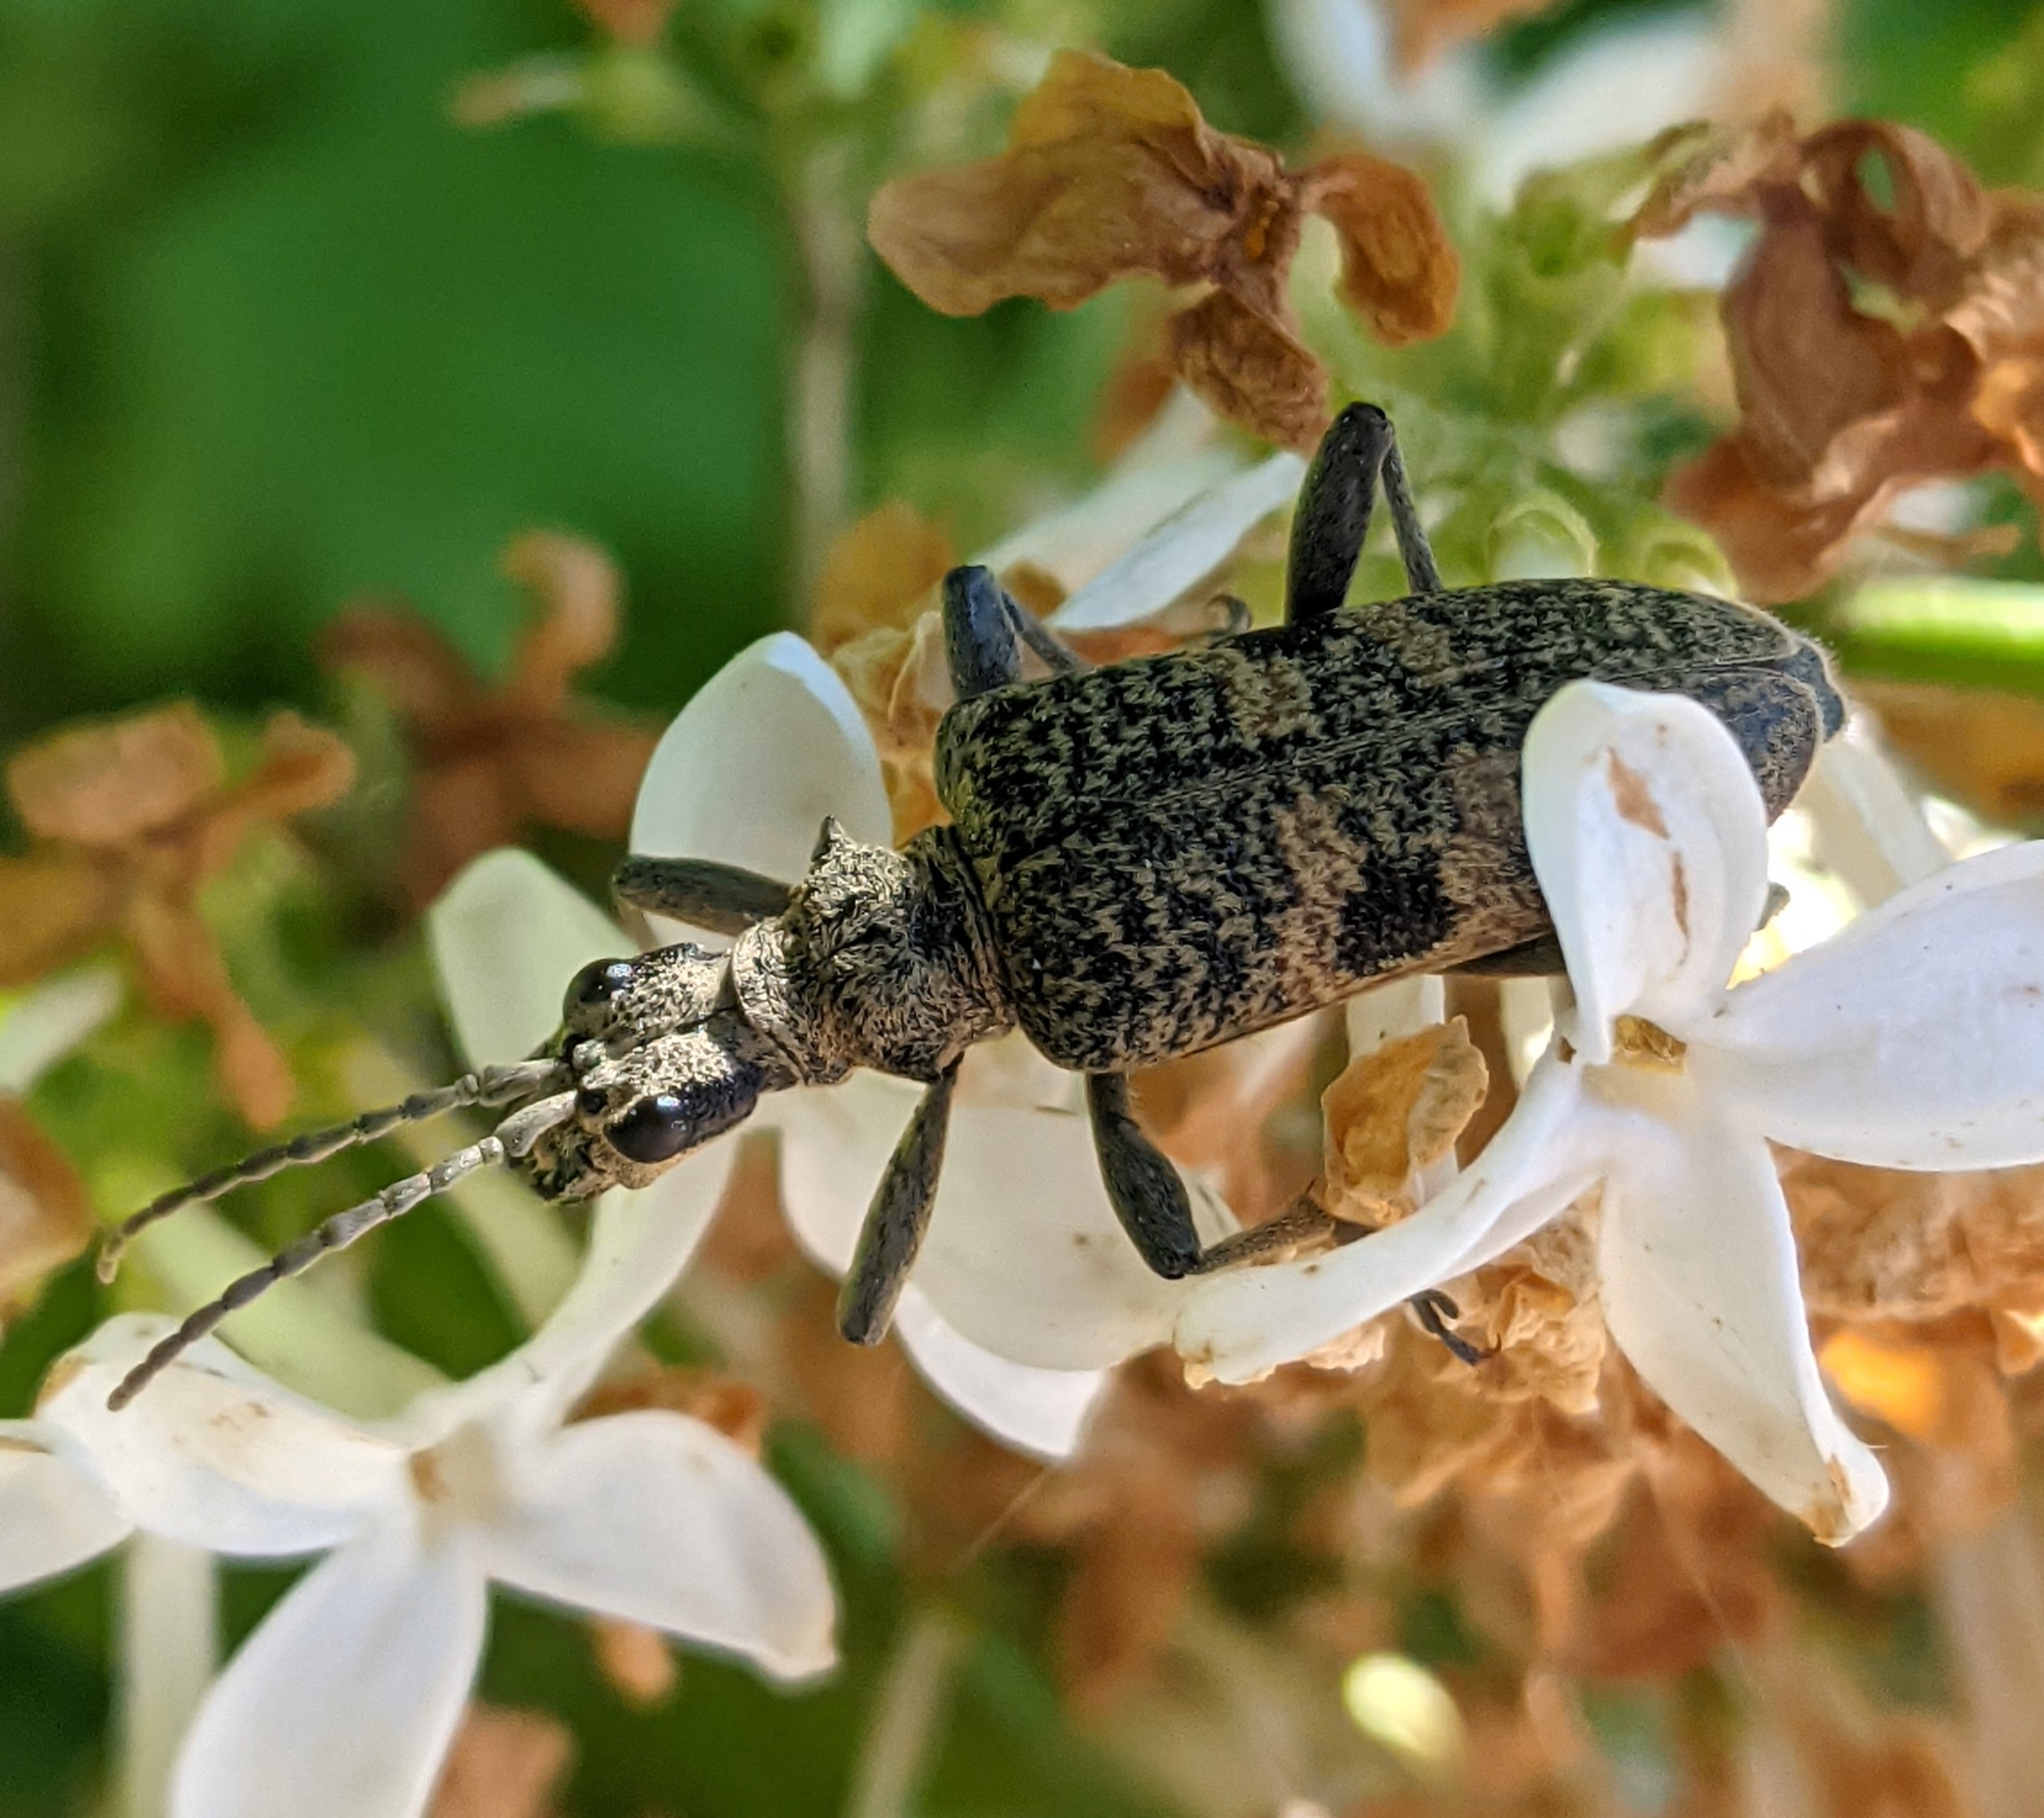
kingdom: Animalia
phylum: Arthropoda
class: Insecta
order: Coleoptera
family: Cerambycidae
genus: Rhagium
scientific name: Rhagium mordax
